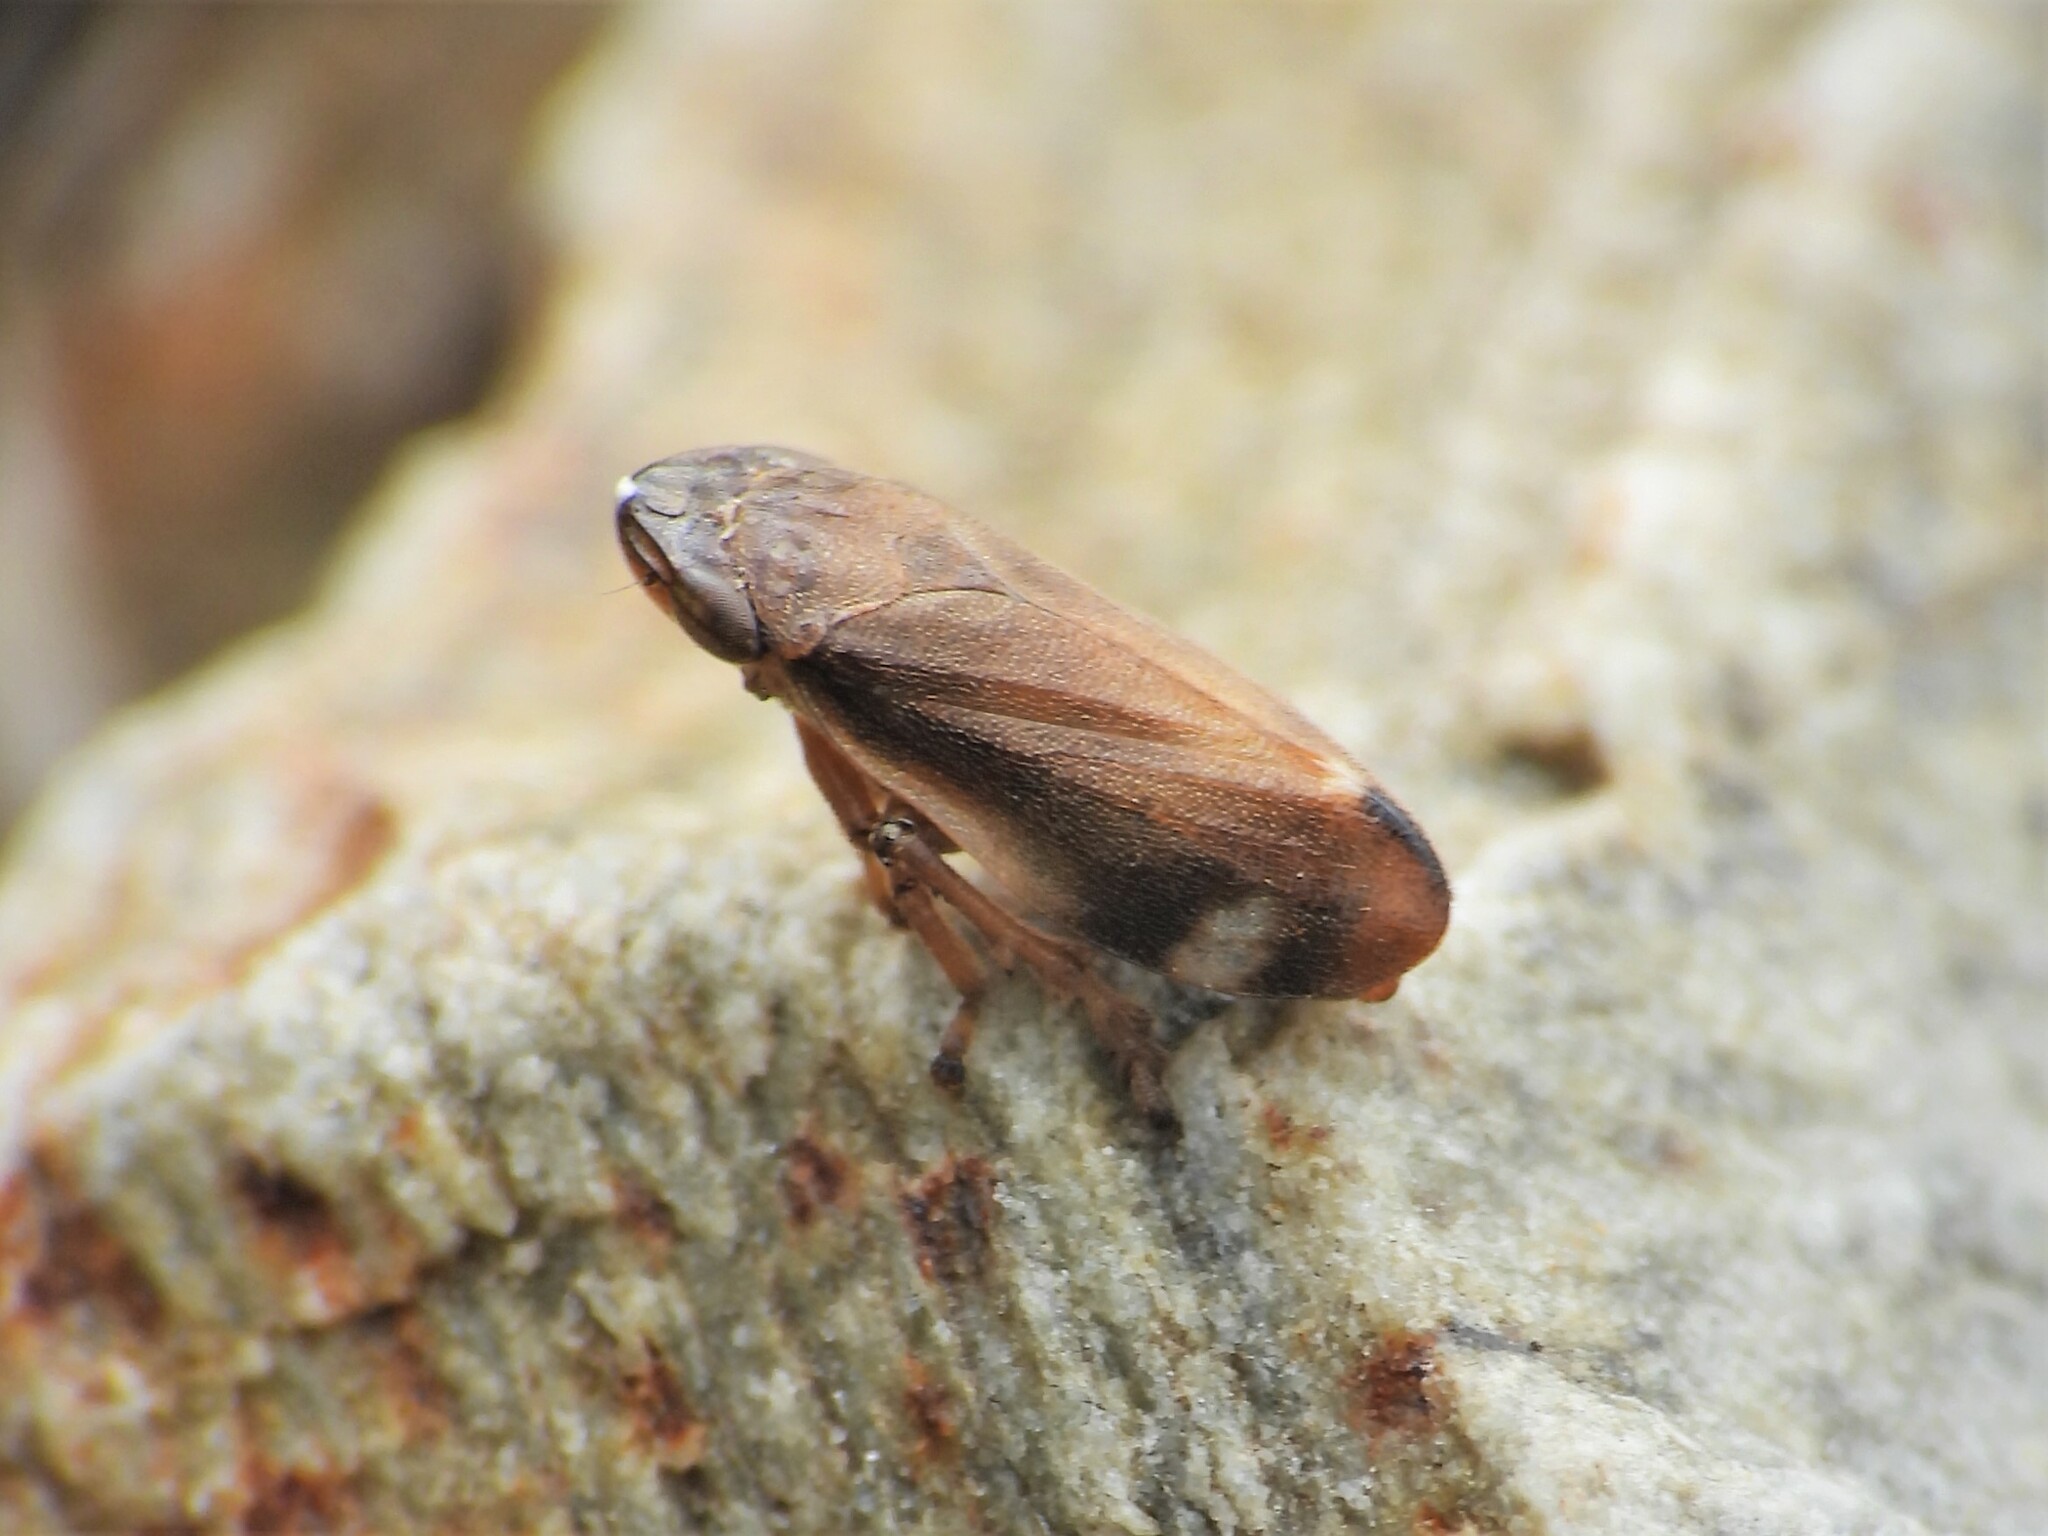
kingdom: Animalia
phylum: Arthropoda
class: Insecta
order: Hemiptera
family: Aphrophoridae
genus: Neophilaenus
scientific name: Neophilaenus exclamationis
